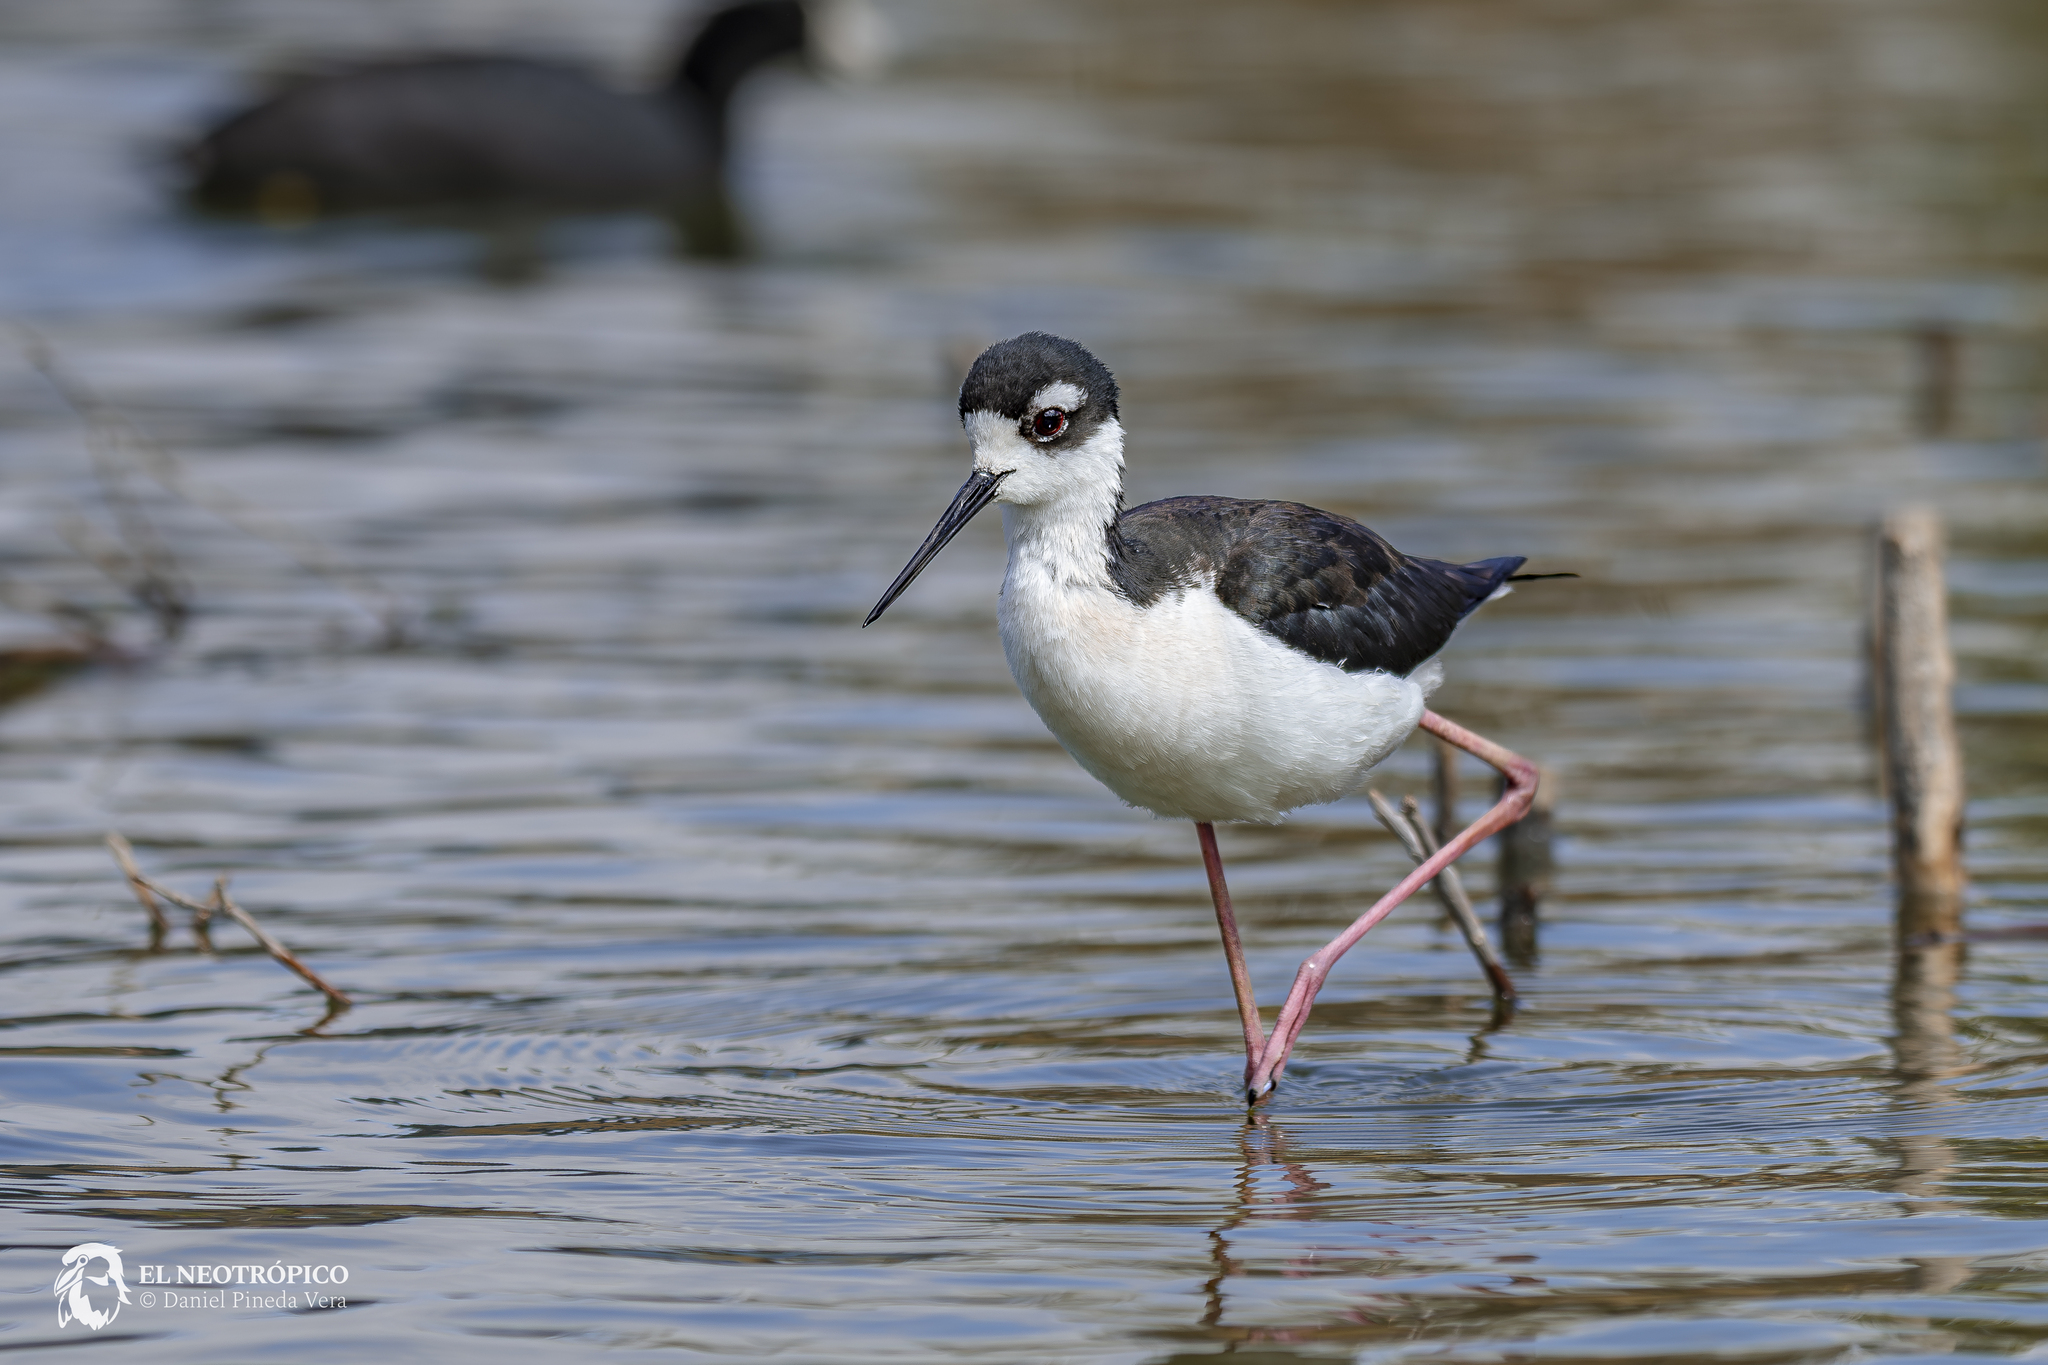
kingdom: Animalia
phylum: Chordata
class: Aves
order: Charadriiformes
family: Recurvirostridae
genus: Himantopus
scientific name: Himantopus mexicanus
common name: Black-necked stilt
